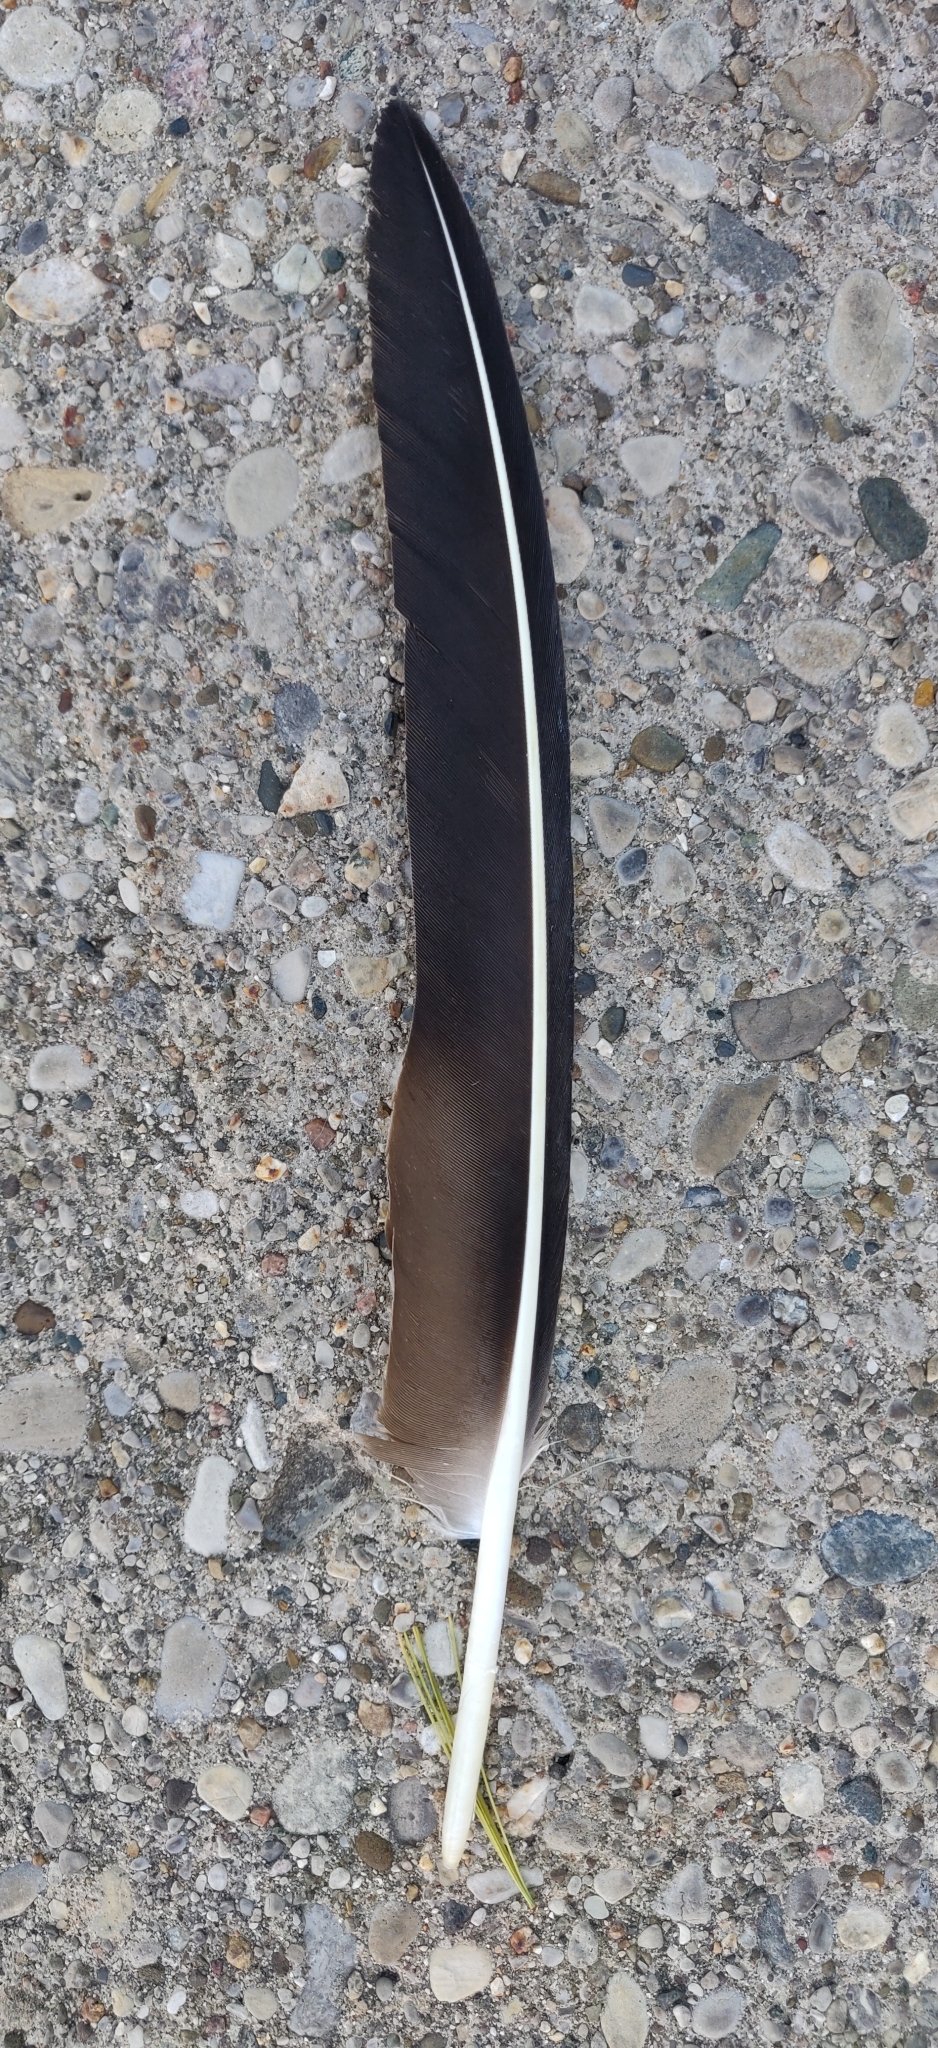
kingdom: Animalia
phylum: Chordata
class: Aves
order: Accipitriformes
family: Cathartidae
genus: Coragyps
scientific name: Coragyps atratus
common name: Black vulture
